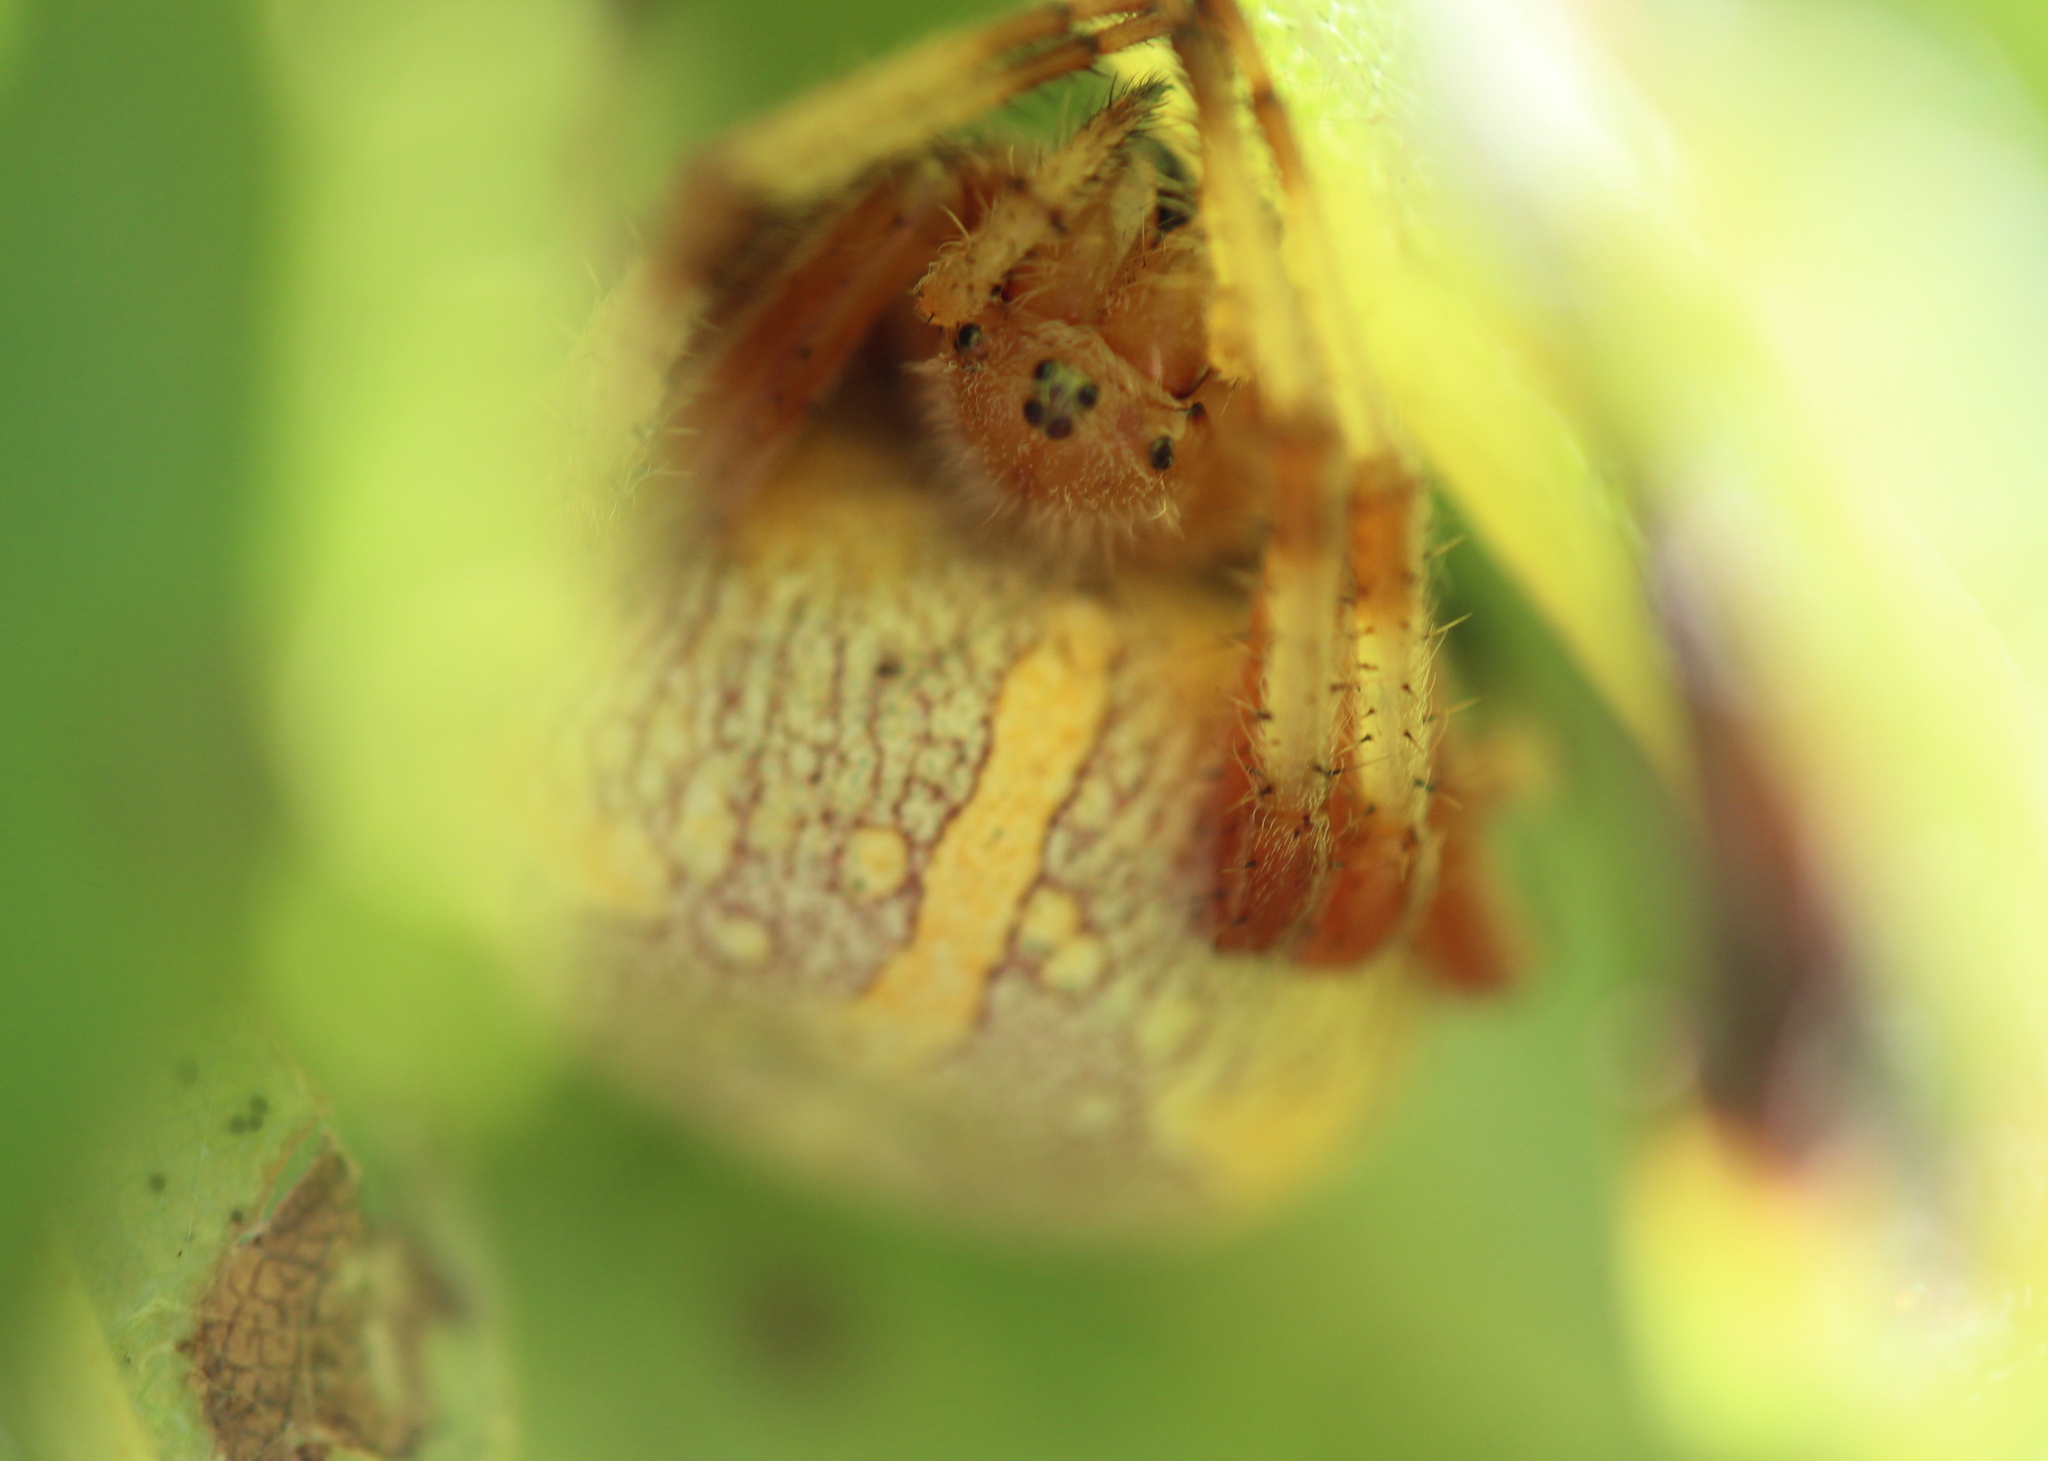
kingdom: Animalia
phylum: Arthropoda
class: Arachnida
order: Araneae
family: Araneidae
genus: Araneus
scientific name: Araneus marmoreus
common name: Marbled orbweaver
